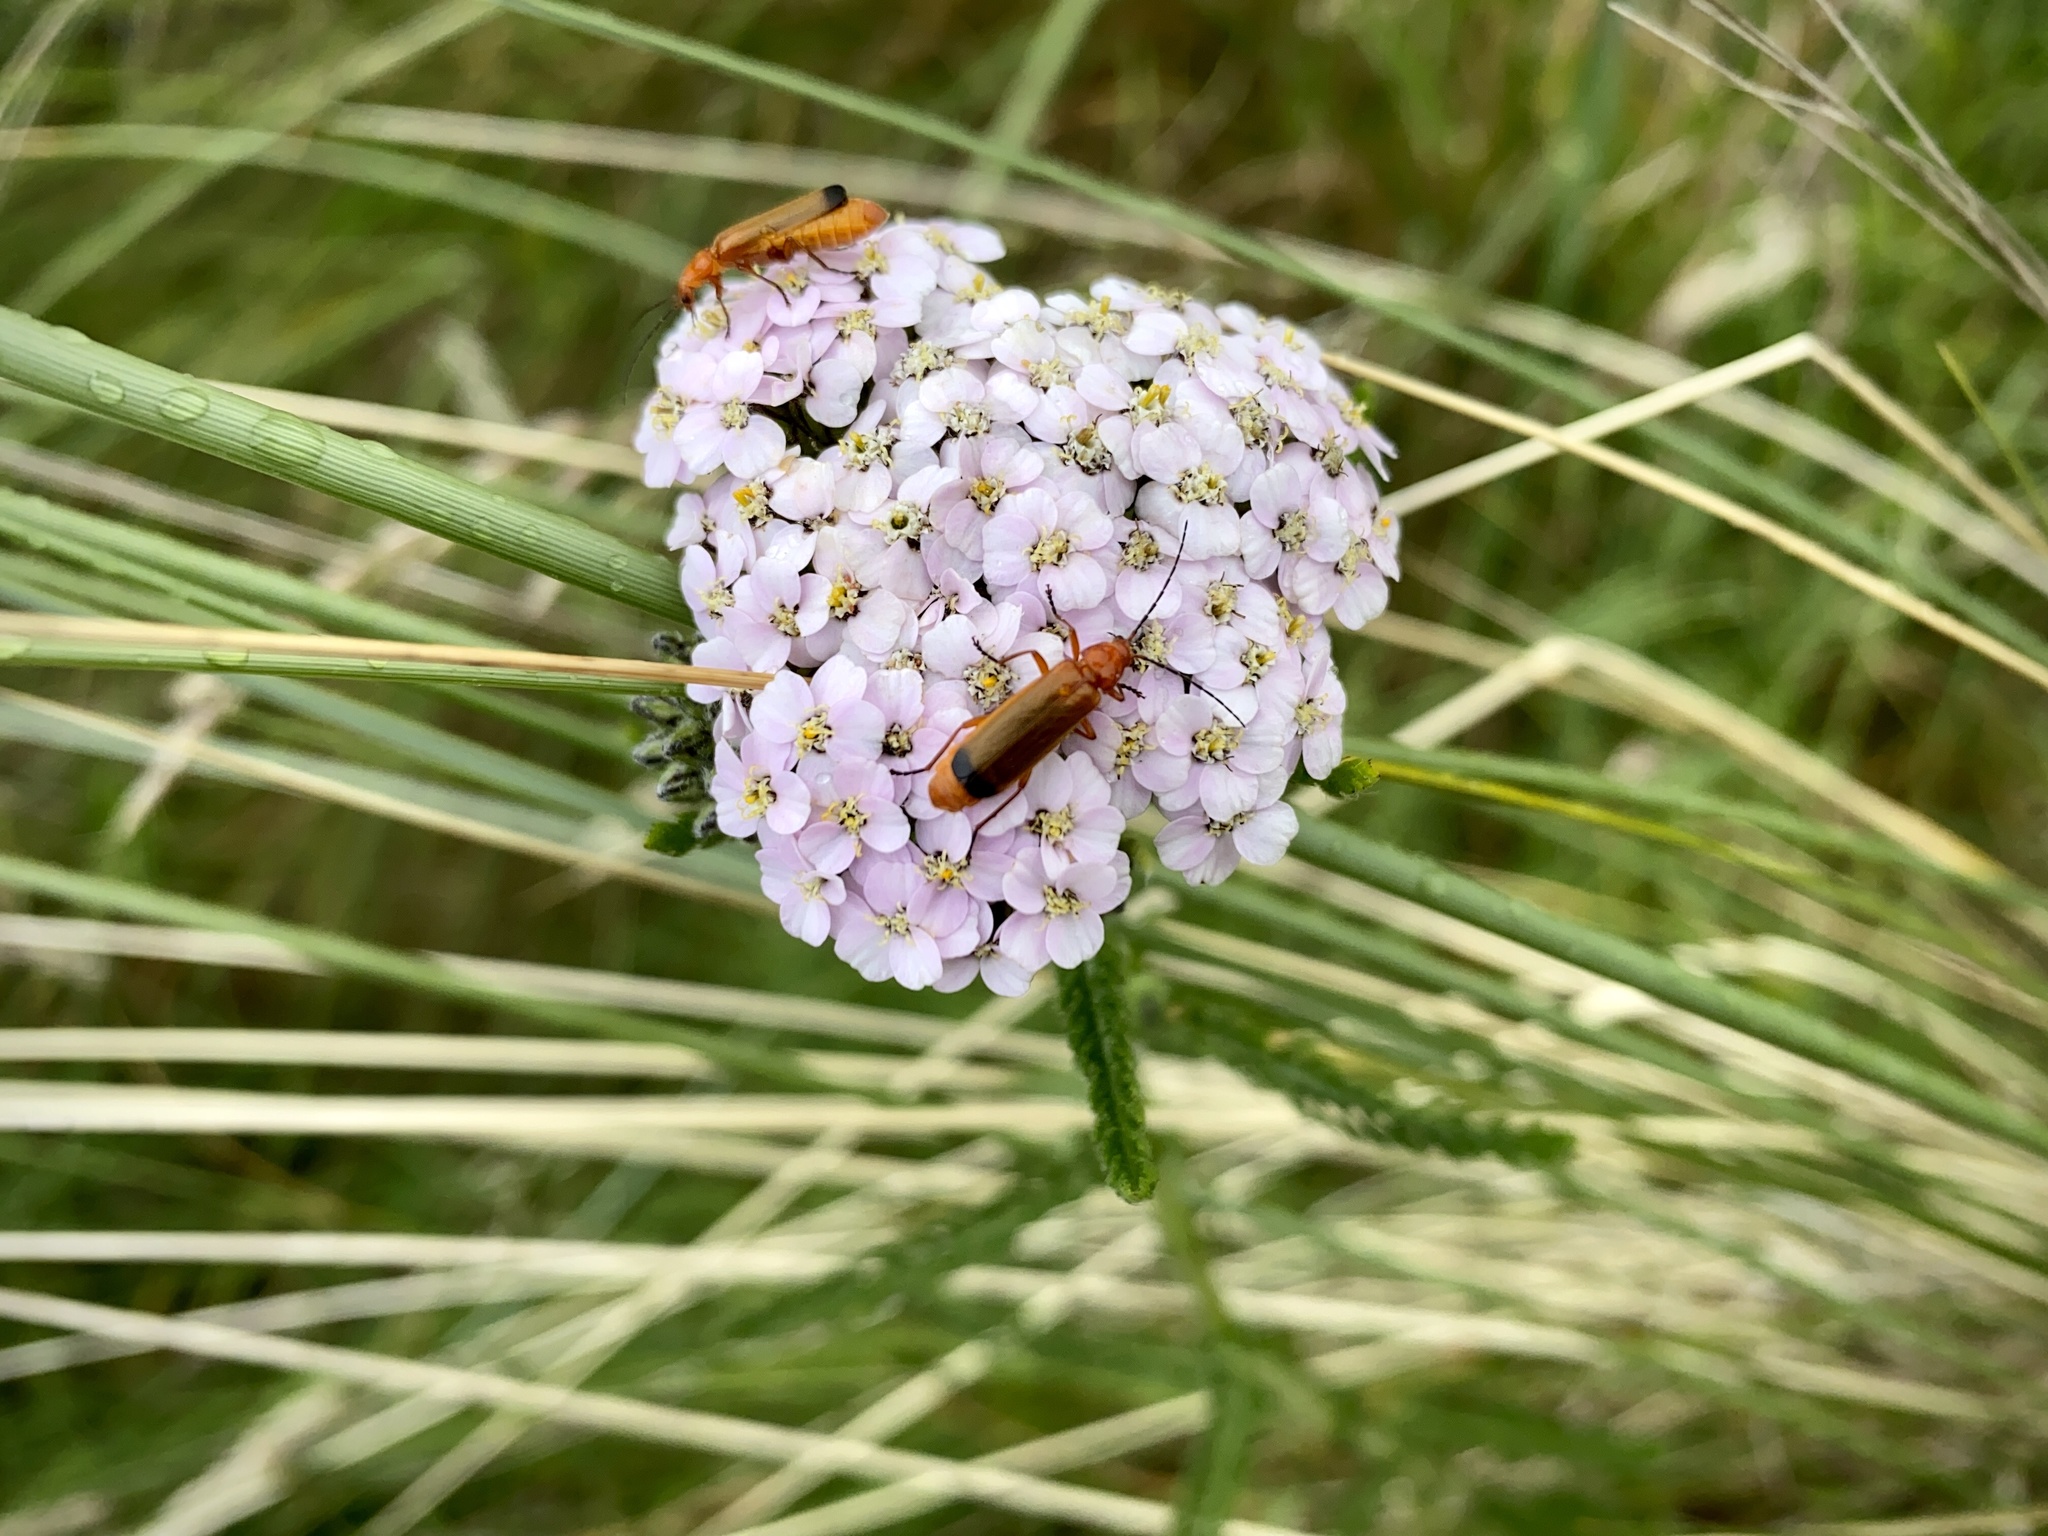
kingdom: Animalia
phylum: Arthropoda
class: Insecta
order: Coleoptera
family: Cantharidae
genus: Rhagonycha
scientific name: Rhagonycha fulva
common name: Common red soldier beetle
